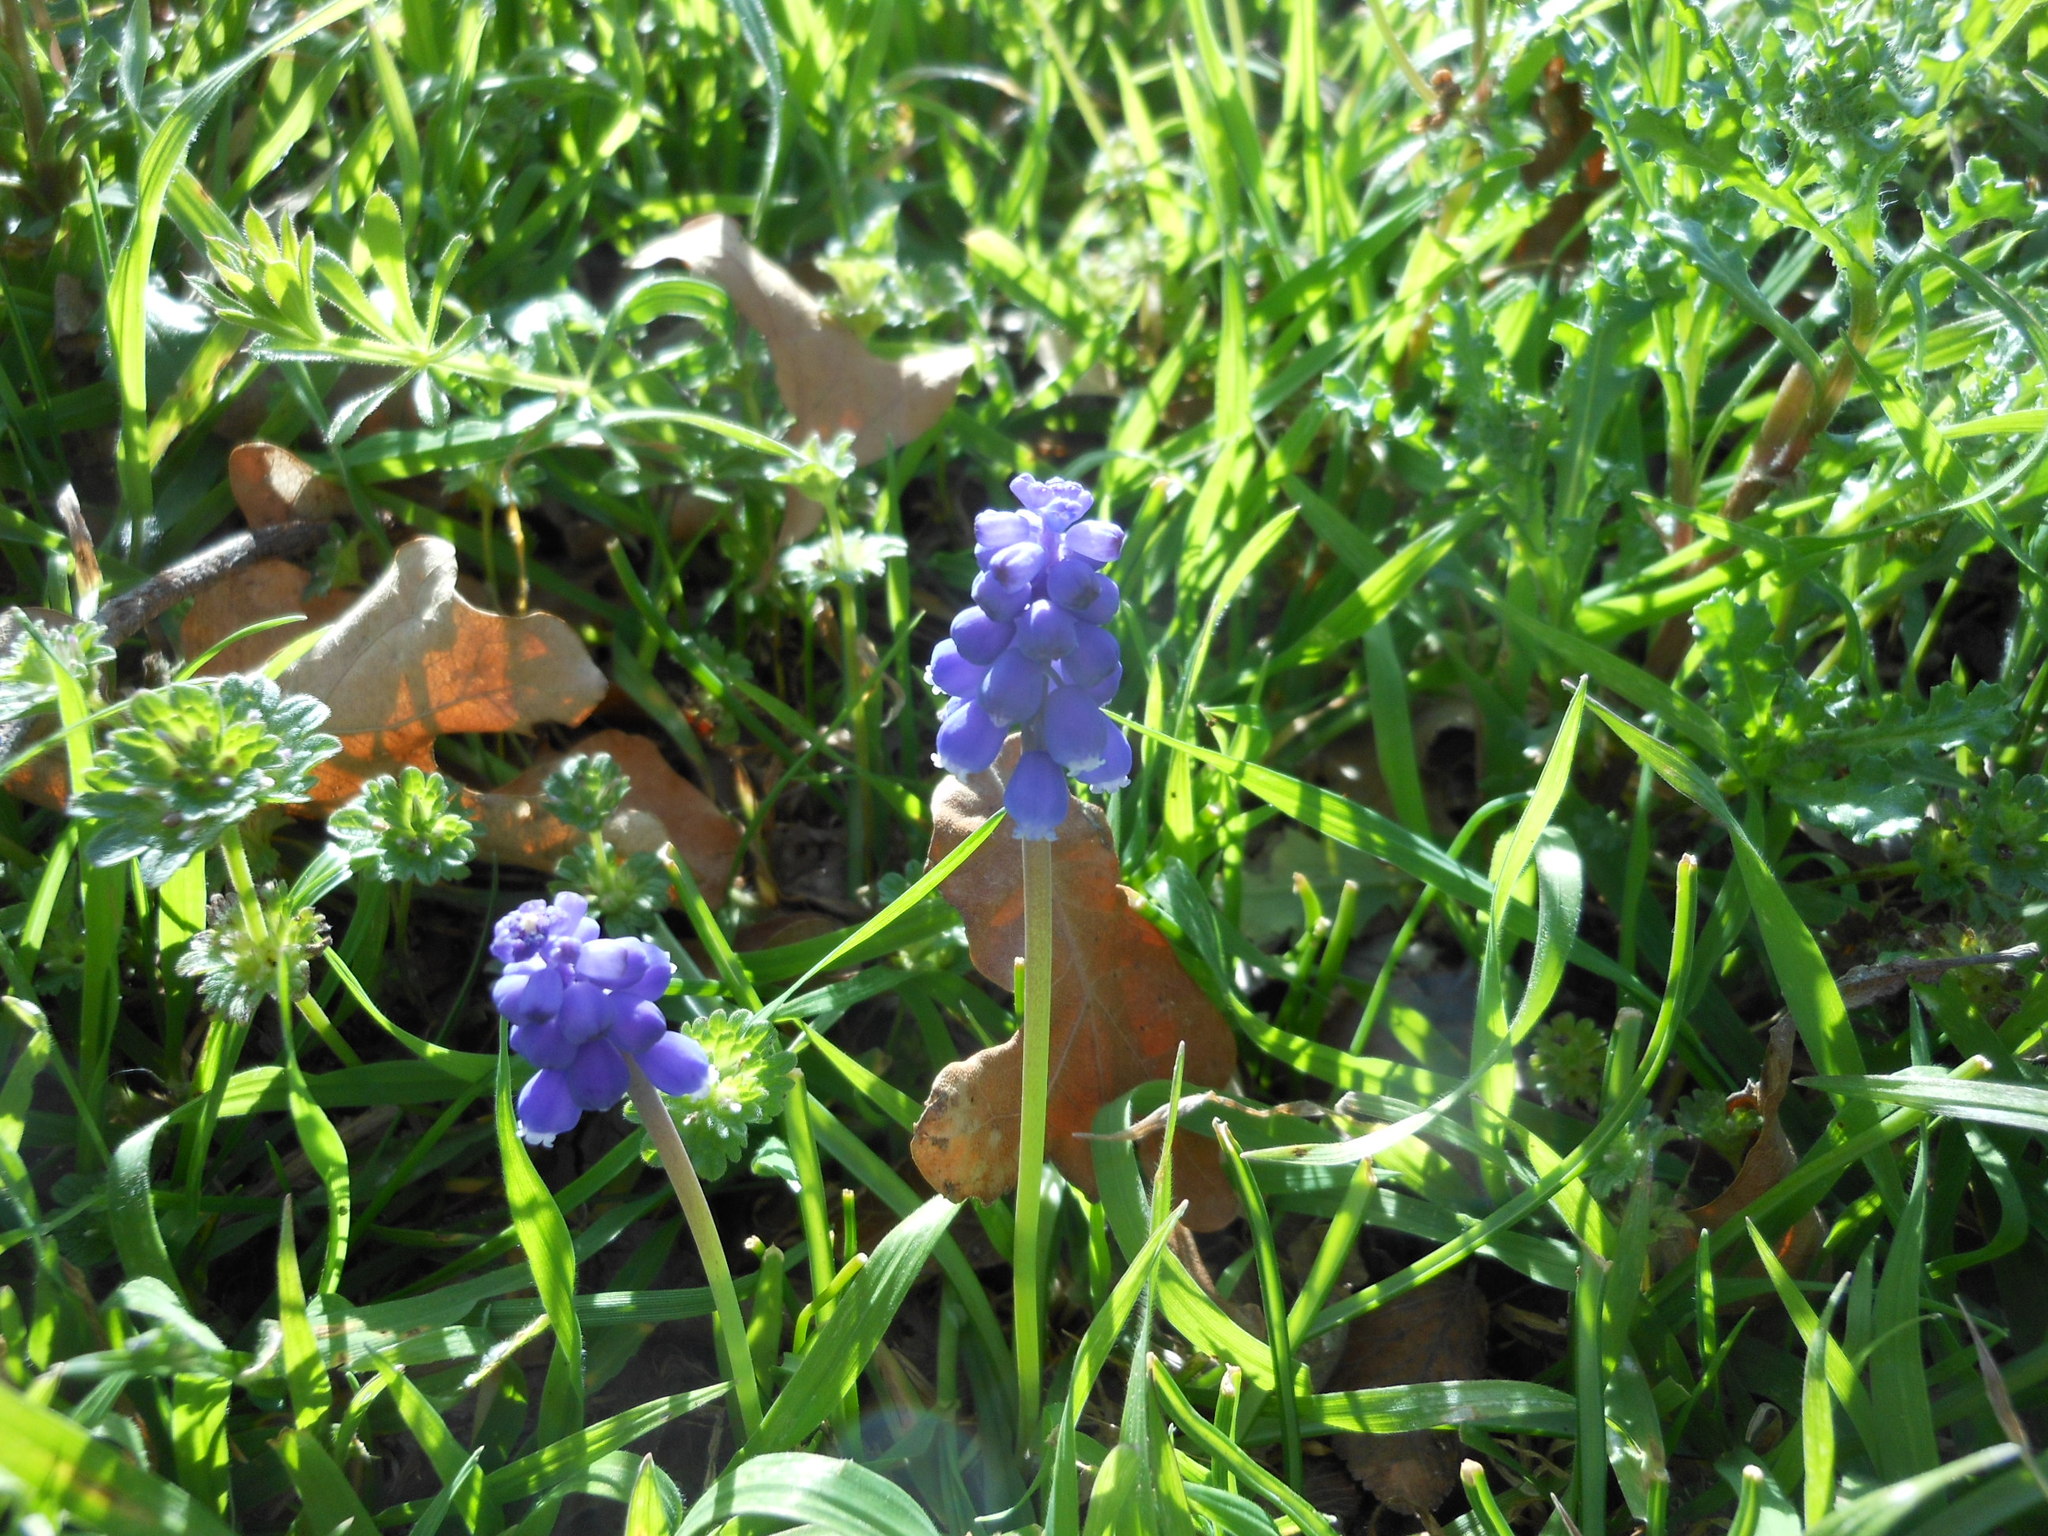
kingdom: Plantae
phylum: Tracheophyta
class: Liliopsida
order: Asparagales
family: Asparagaceae
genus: Muscari
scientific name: Muscari neglectum
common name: Grape-hyacinth
